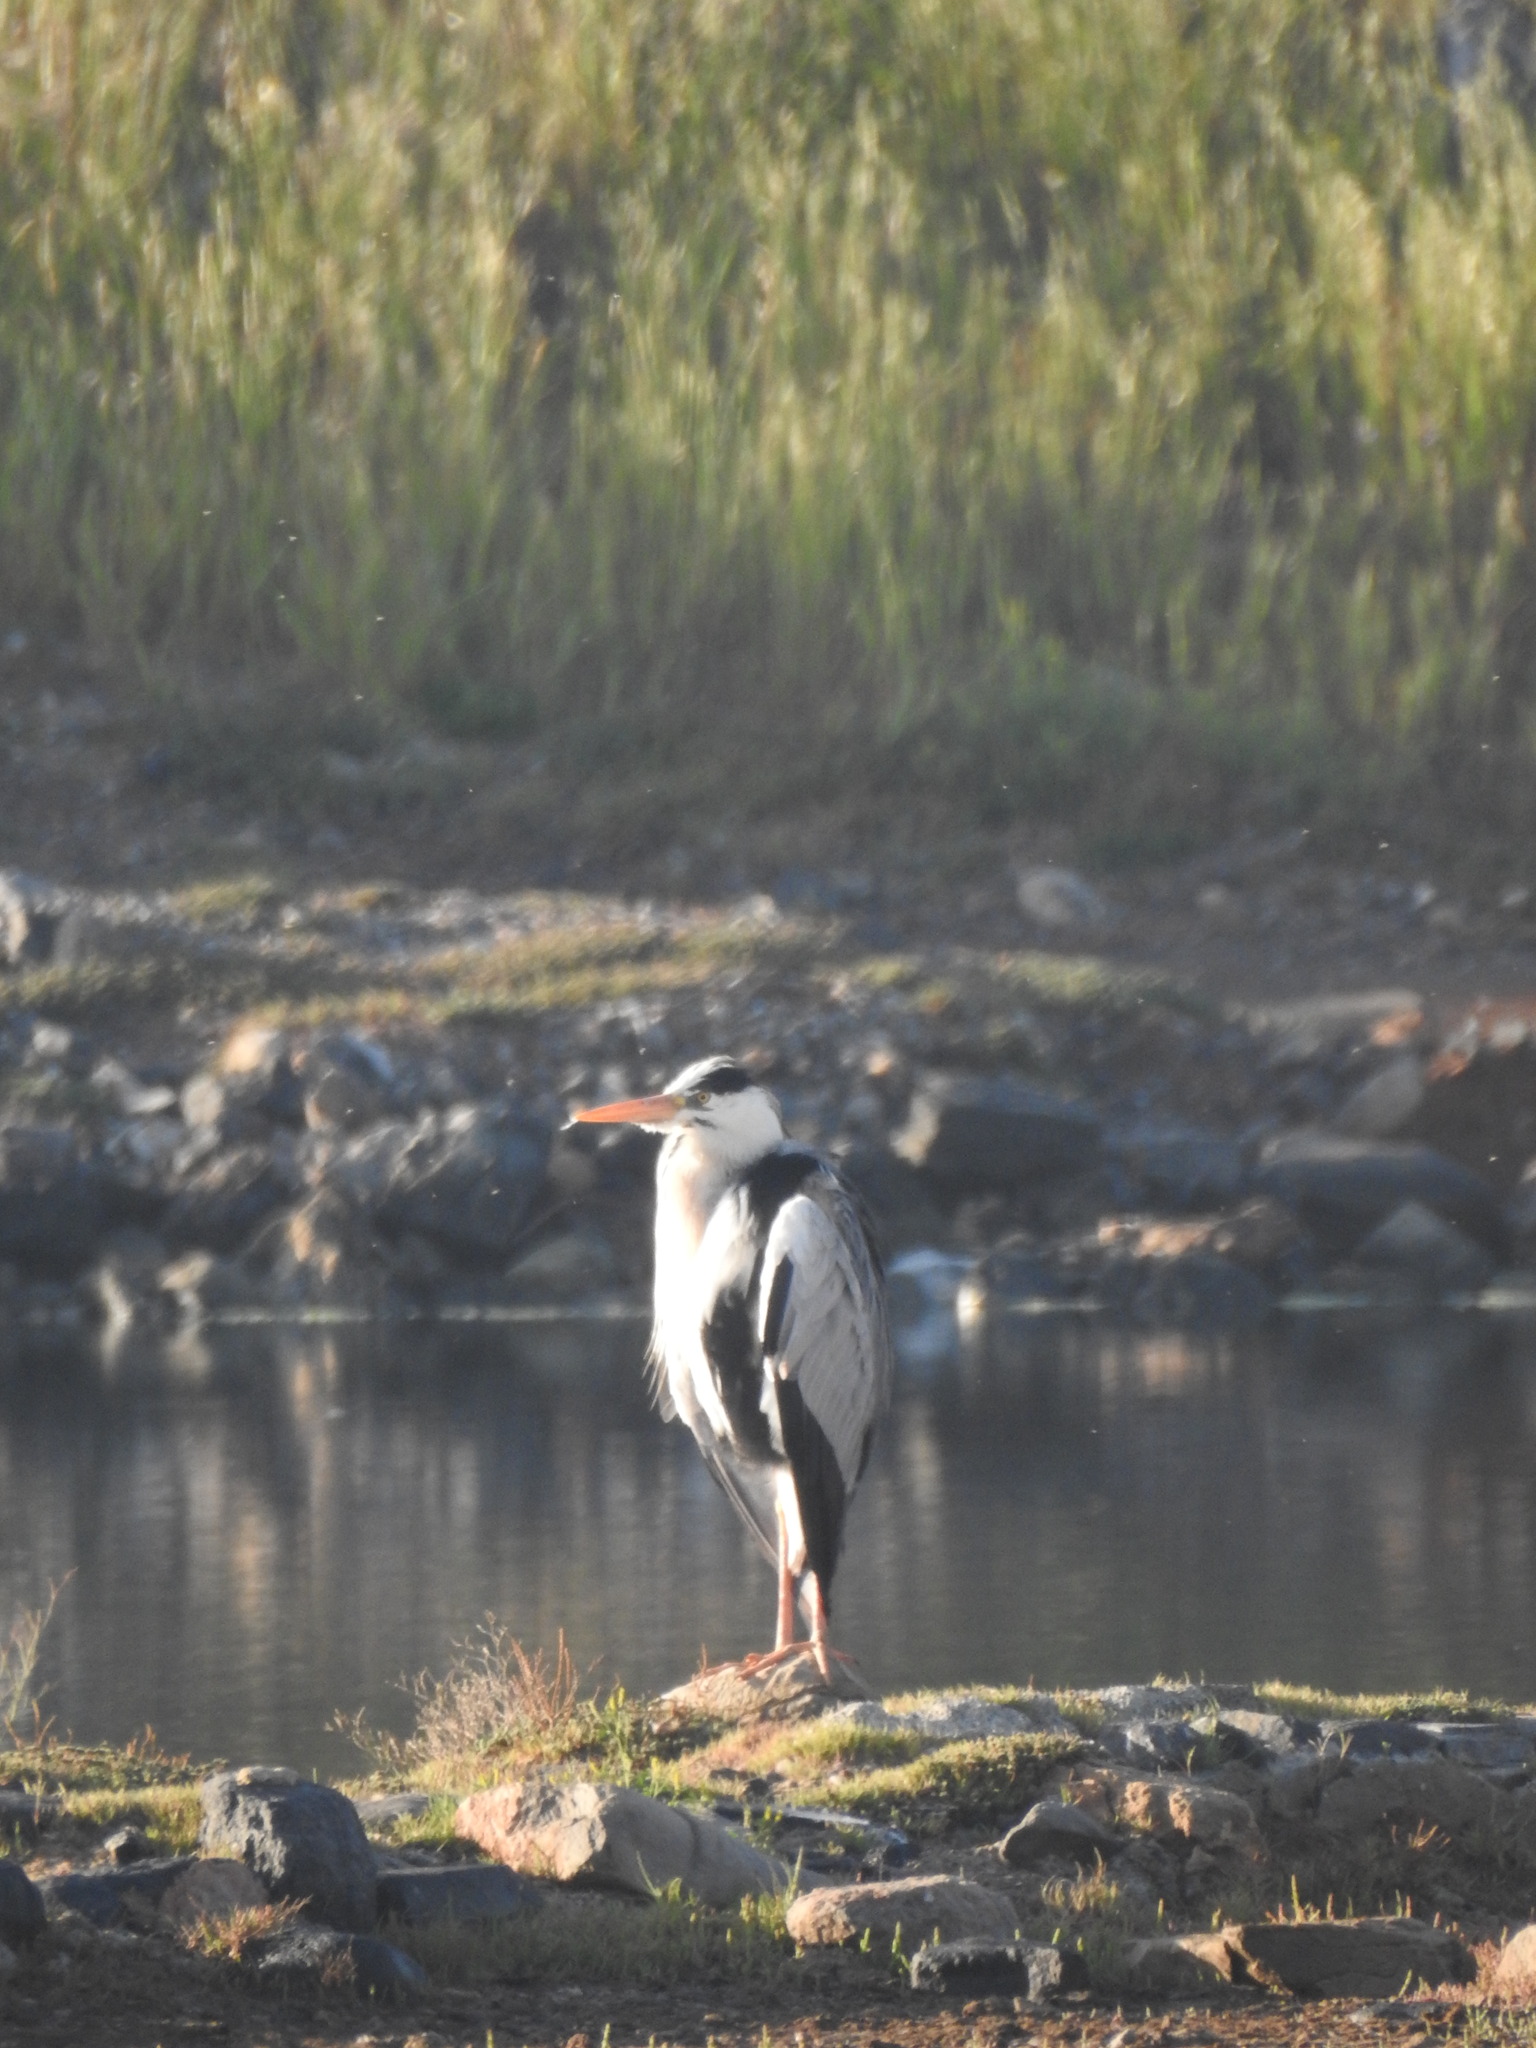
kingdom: Animalia
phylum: Chordata
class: Aves
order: Pelecaniformes
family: Ardeidae
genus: Ardea
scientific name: Ardea cinerea
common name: Grey heron
